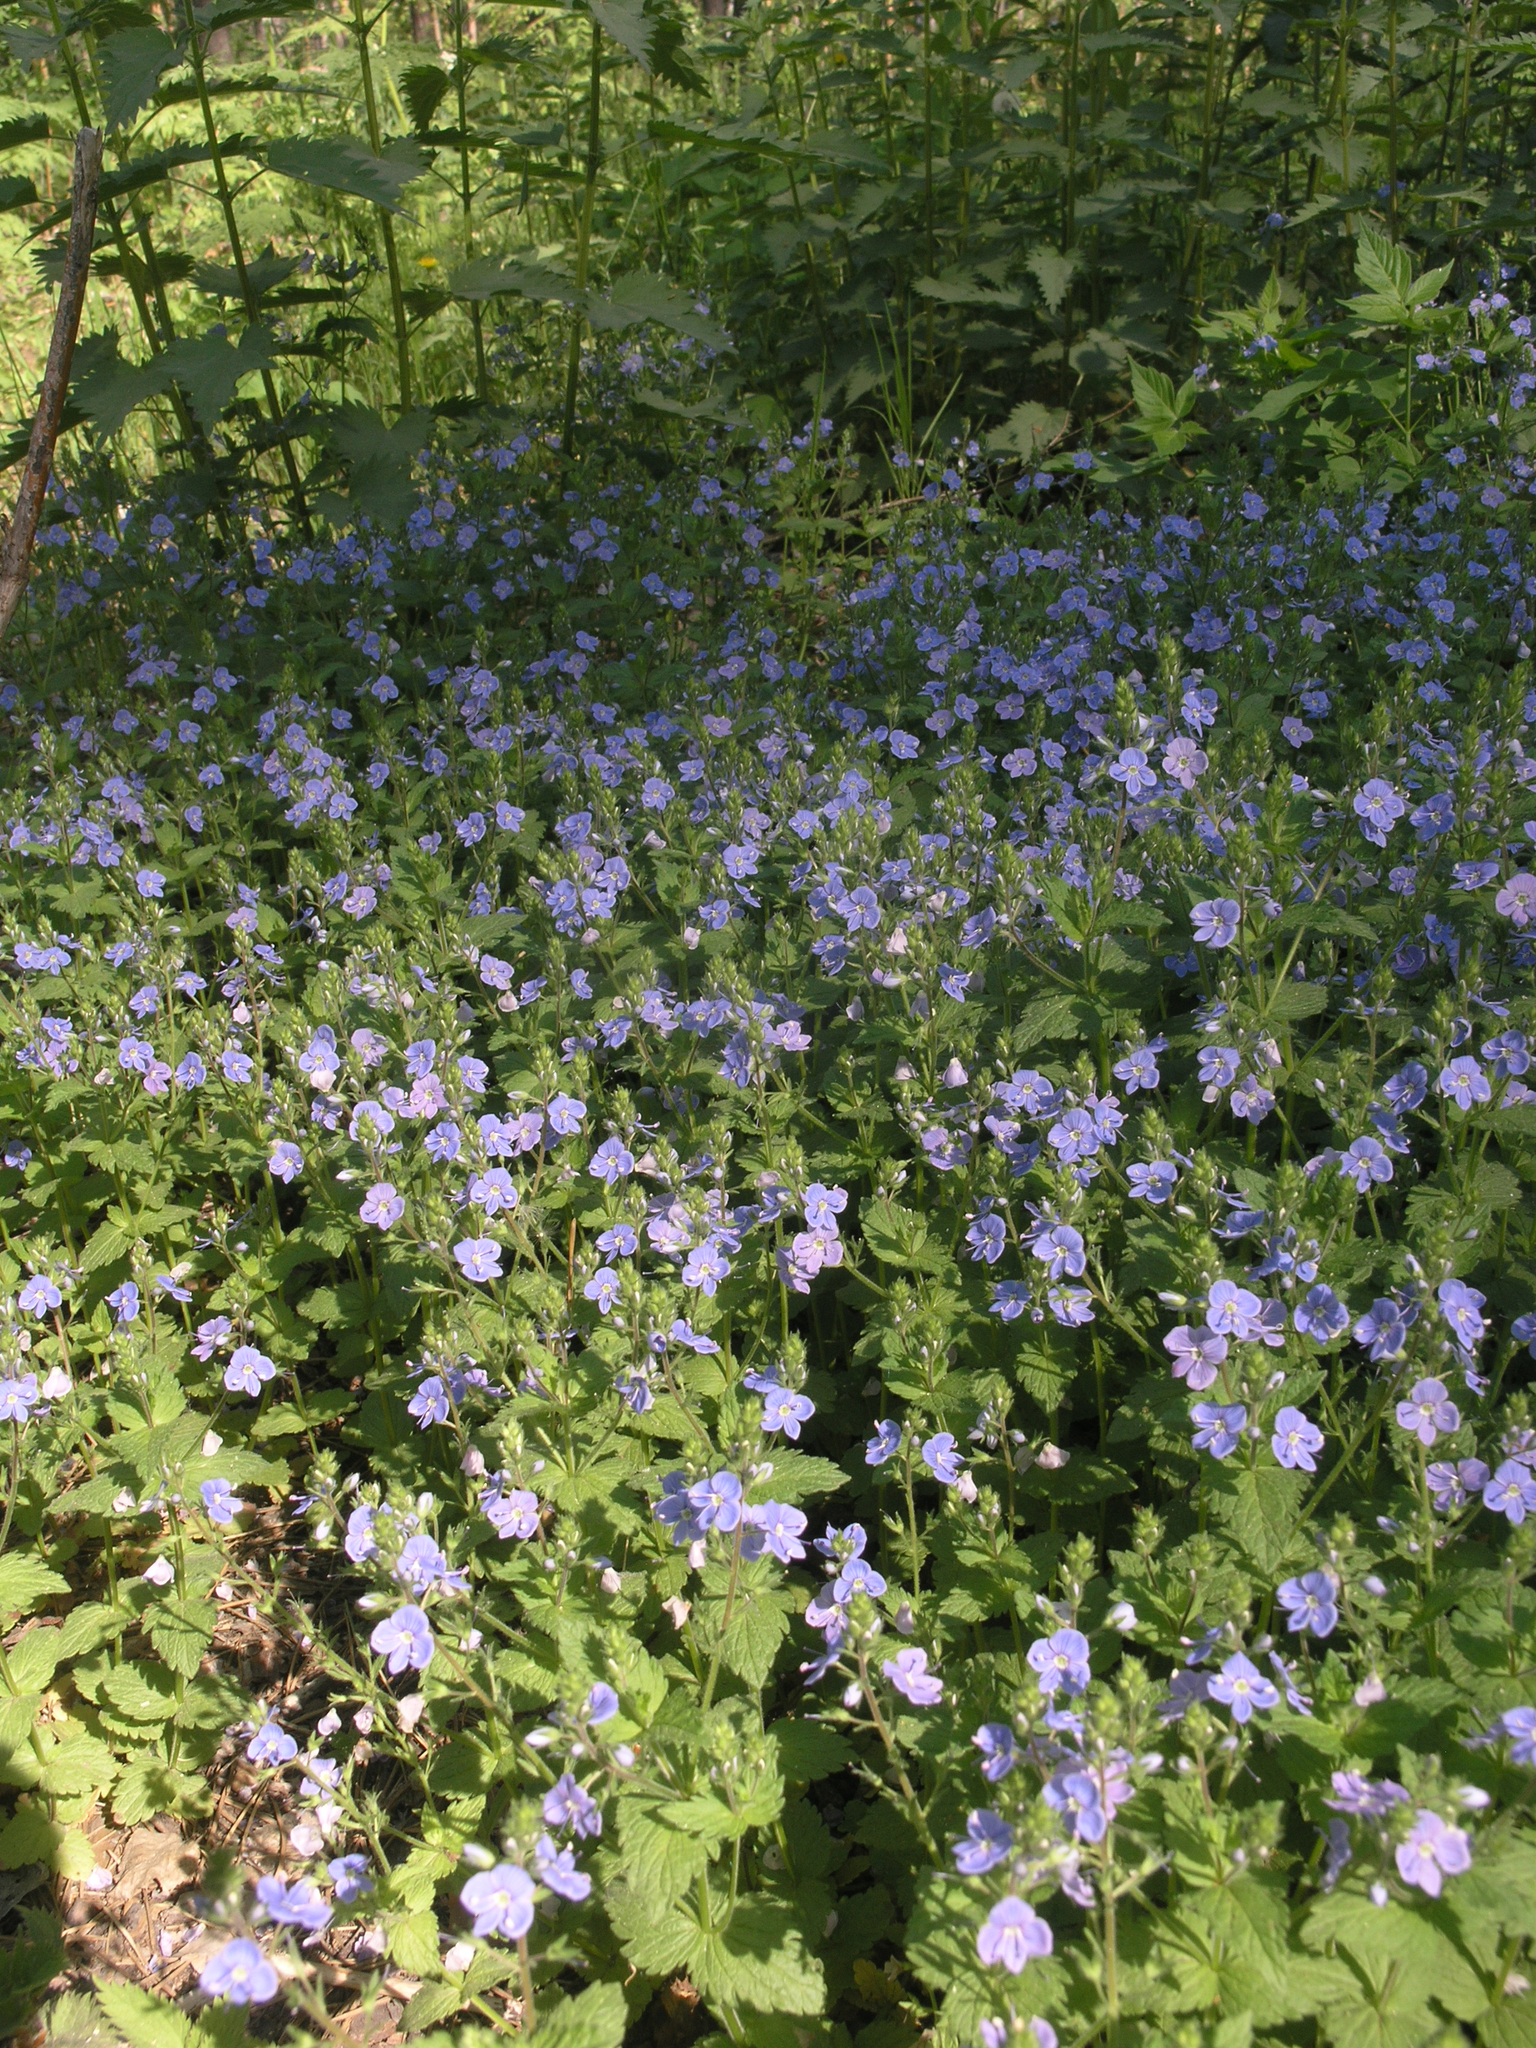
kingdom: Plantae
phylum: Tracheophyta
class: Magnoliopsida
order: Lamiales
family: Plantaginaceae
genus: Veronica
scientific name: Veronica chamaedrys
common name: Germander speedwell
